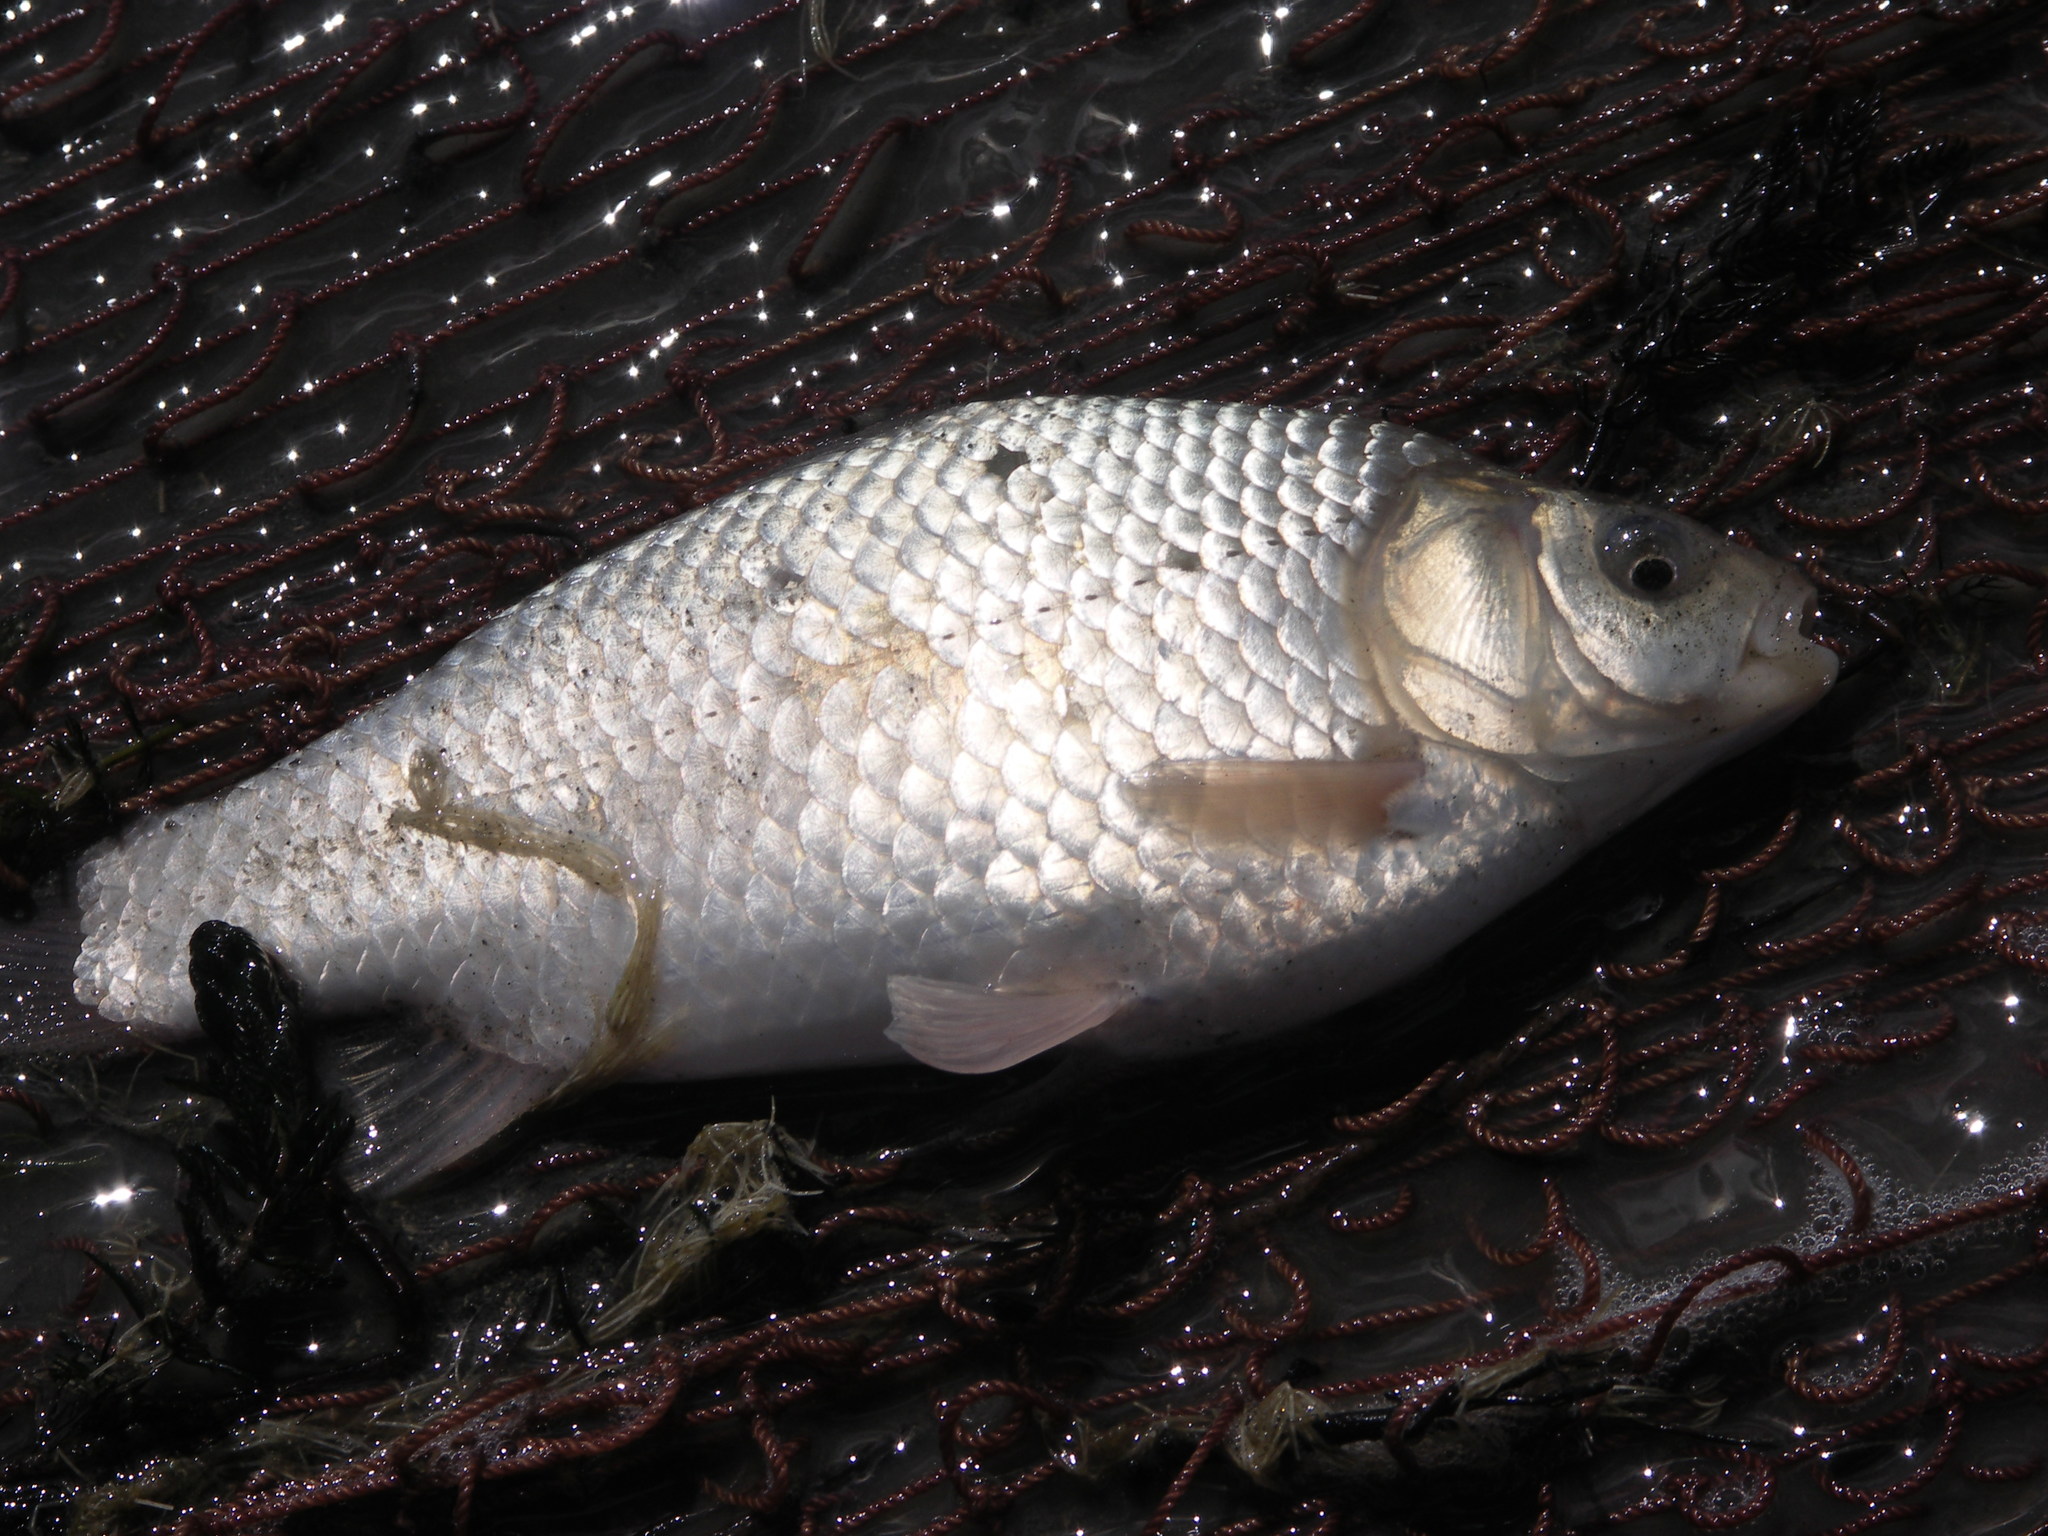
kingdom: Animalia
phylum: Chordata
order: Cypriniformes
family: Cyprinidae
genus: Carassius
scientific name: Carassius gibelio
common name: Prussian carp
